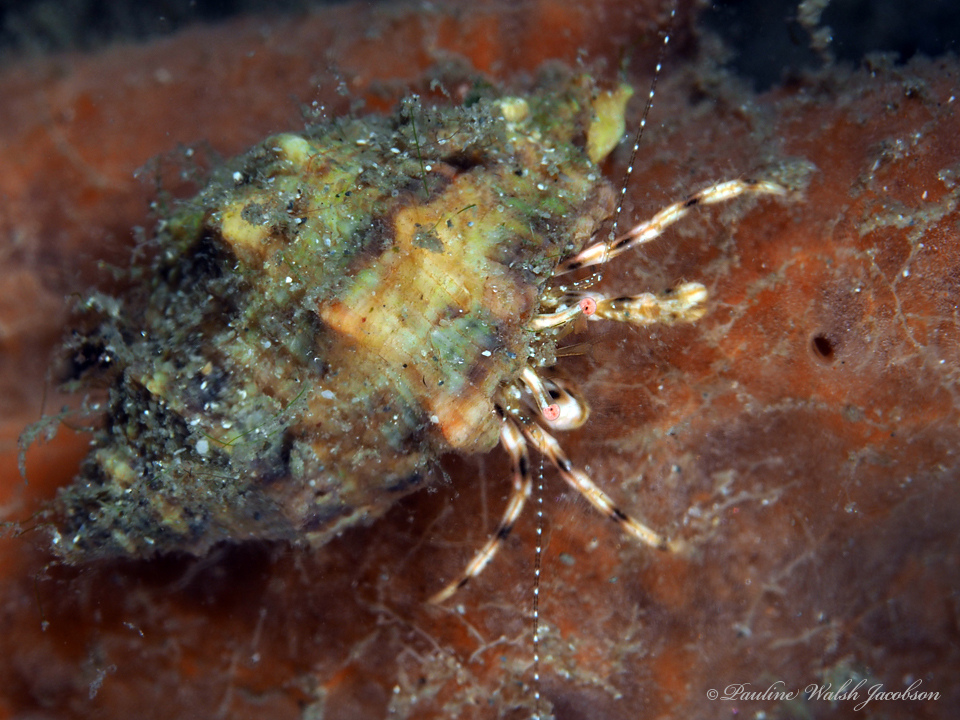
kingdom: Animalia
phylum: Arthropoda
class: Malacostraca
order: Decapoda
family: Paguridae
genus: Pagurus
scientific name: Pagurus brevidactylus
